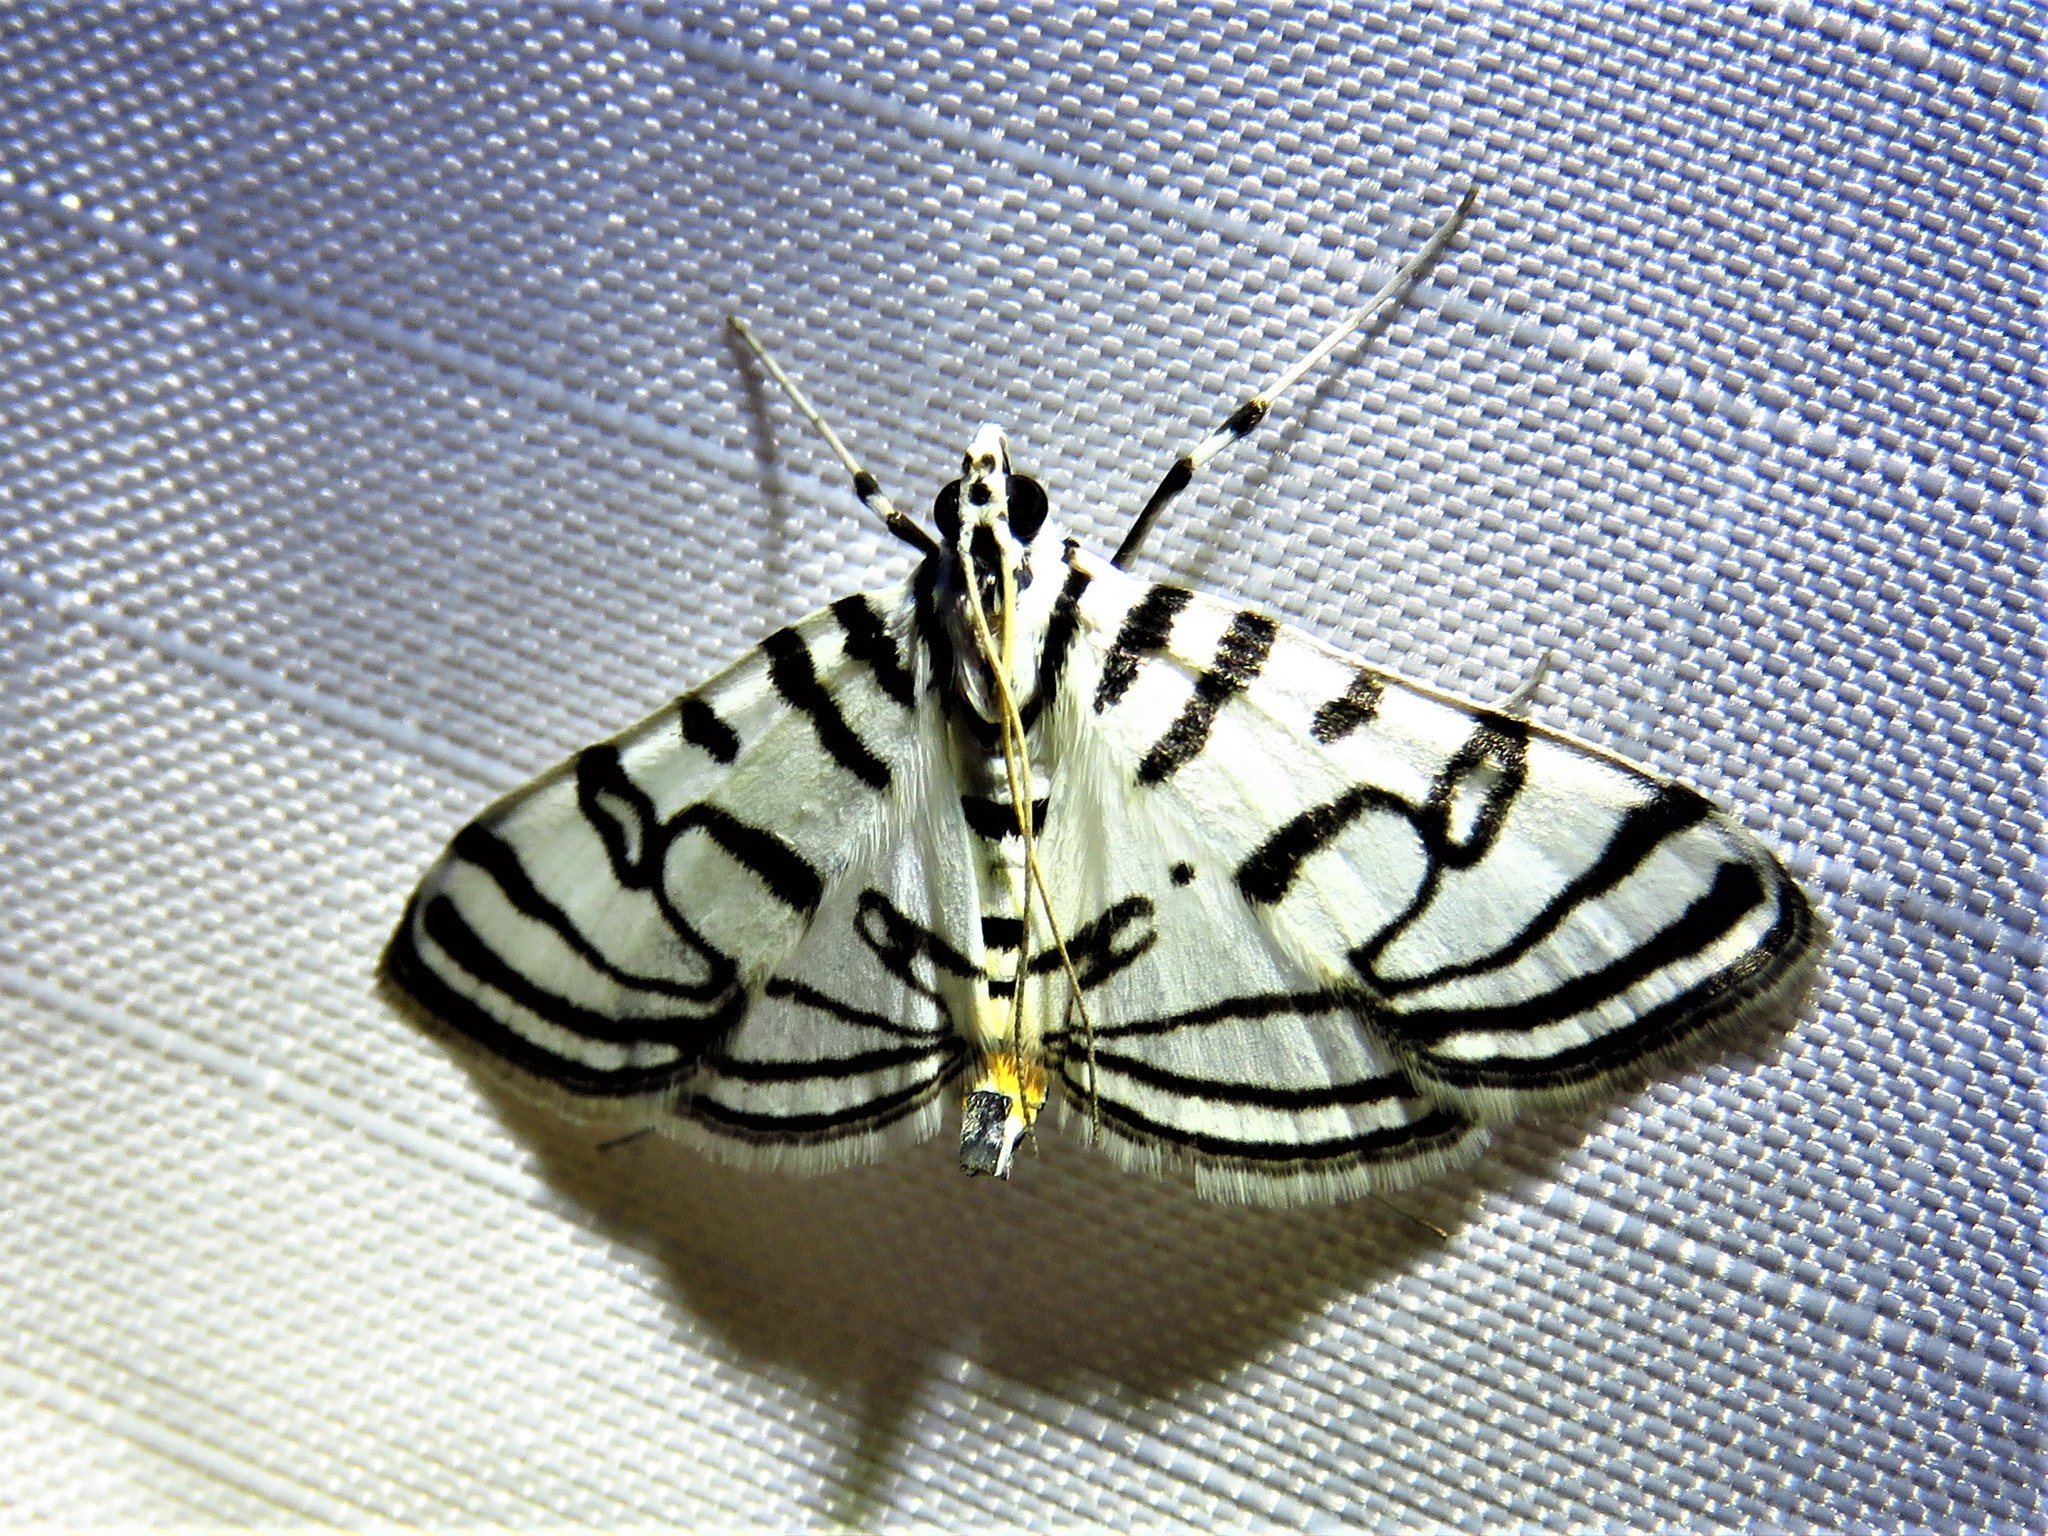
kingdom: Animalia
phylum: Arthropoda
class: Insecta
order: Lepidoptera
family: Crambidae
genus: Conchylodes
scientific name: Conchylodes ovulalis
